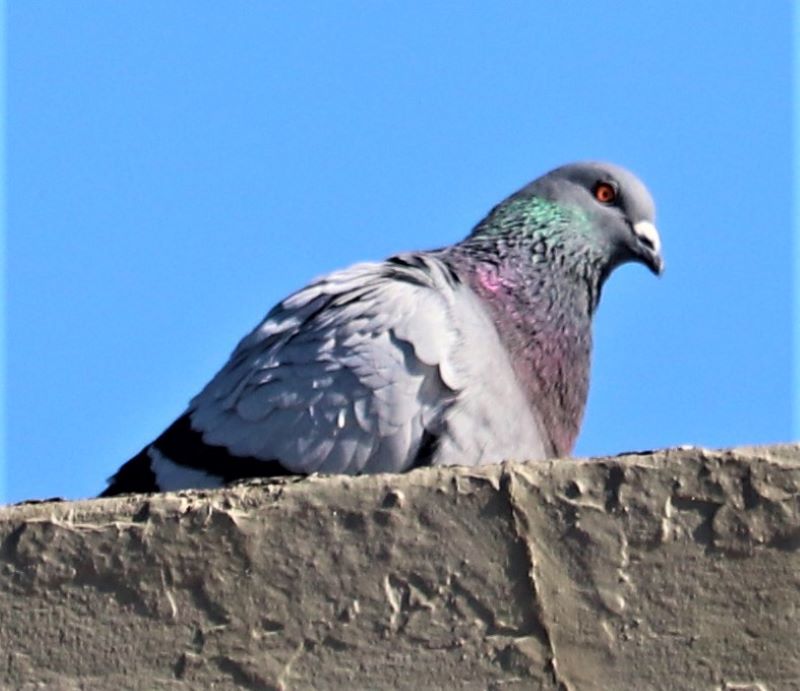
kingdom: Animalia
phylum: Chordata
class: Aves
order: Columbiformes
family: Columbidae
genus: Columba
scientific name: Columba livia
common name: Rock pigeon
